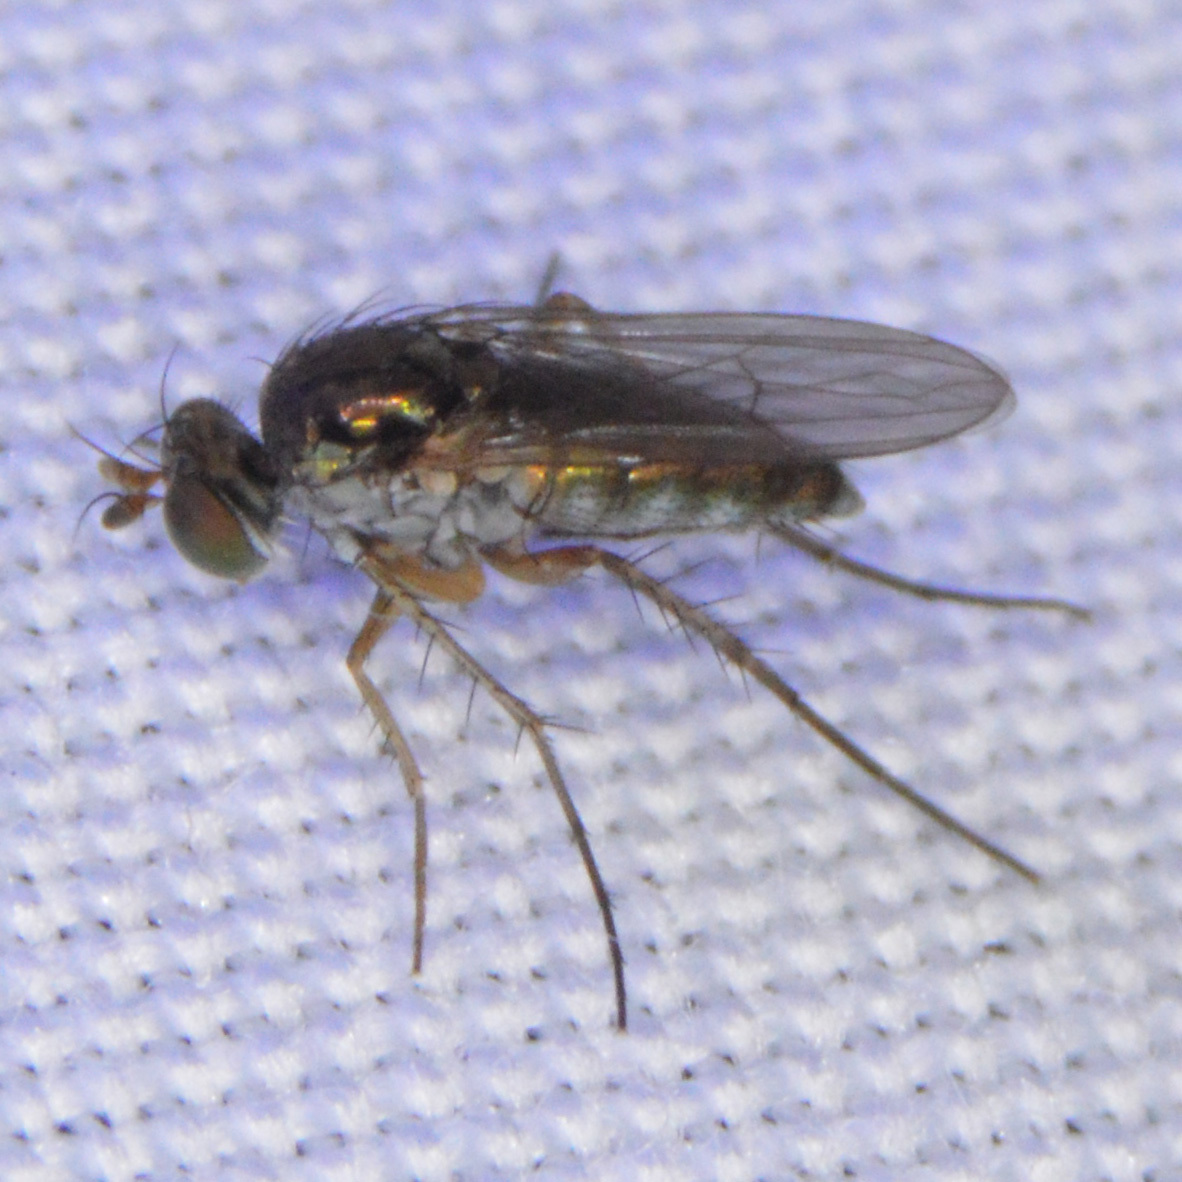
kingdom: Animalia
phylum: Arthropoda
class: Insecta
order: Diptera
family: Dolichopodidae
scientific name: Dolichopodidae
